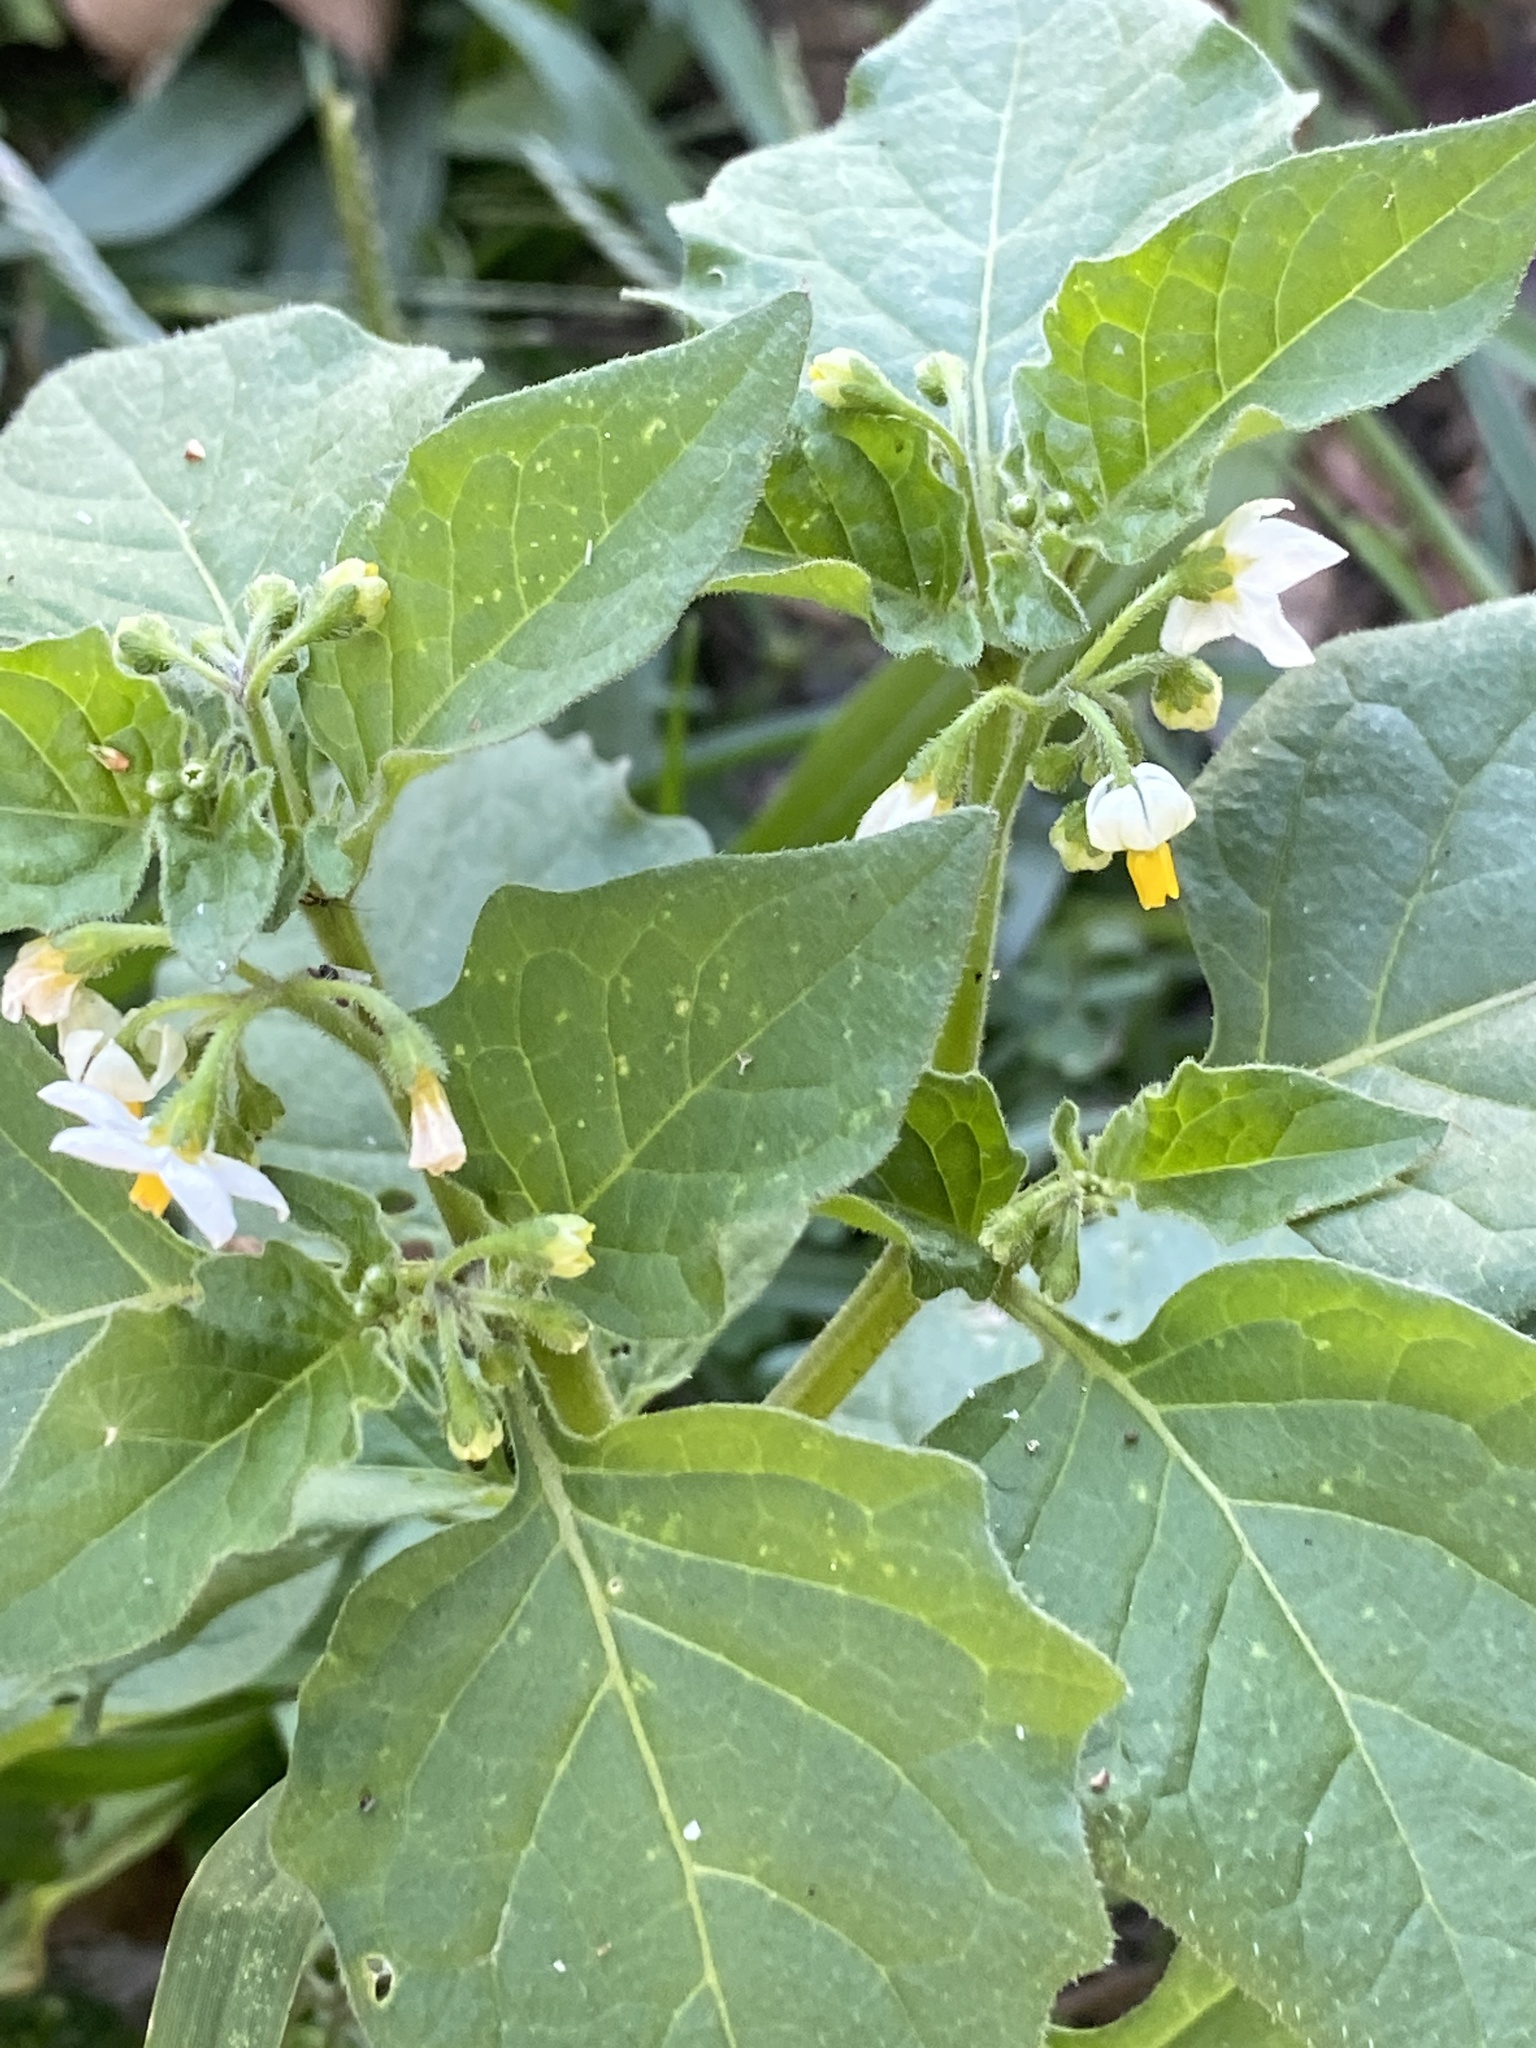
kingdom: Plantae
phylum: Tracheophyta
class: Magnoliopsida
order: Solanales
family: Solanaceae
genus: Solanum
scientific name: Solanum nigrum
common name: Black nightshade
